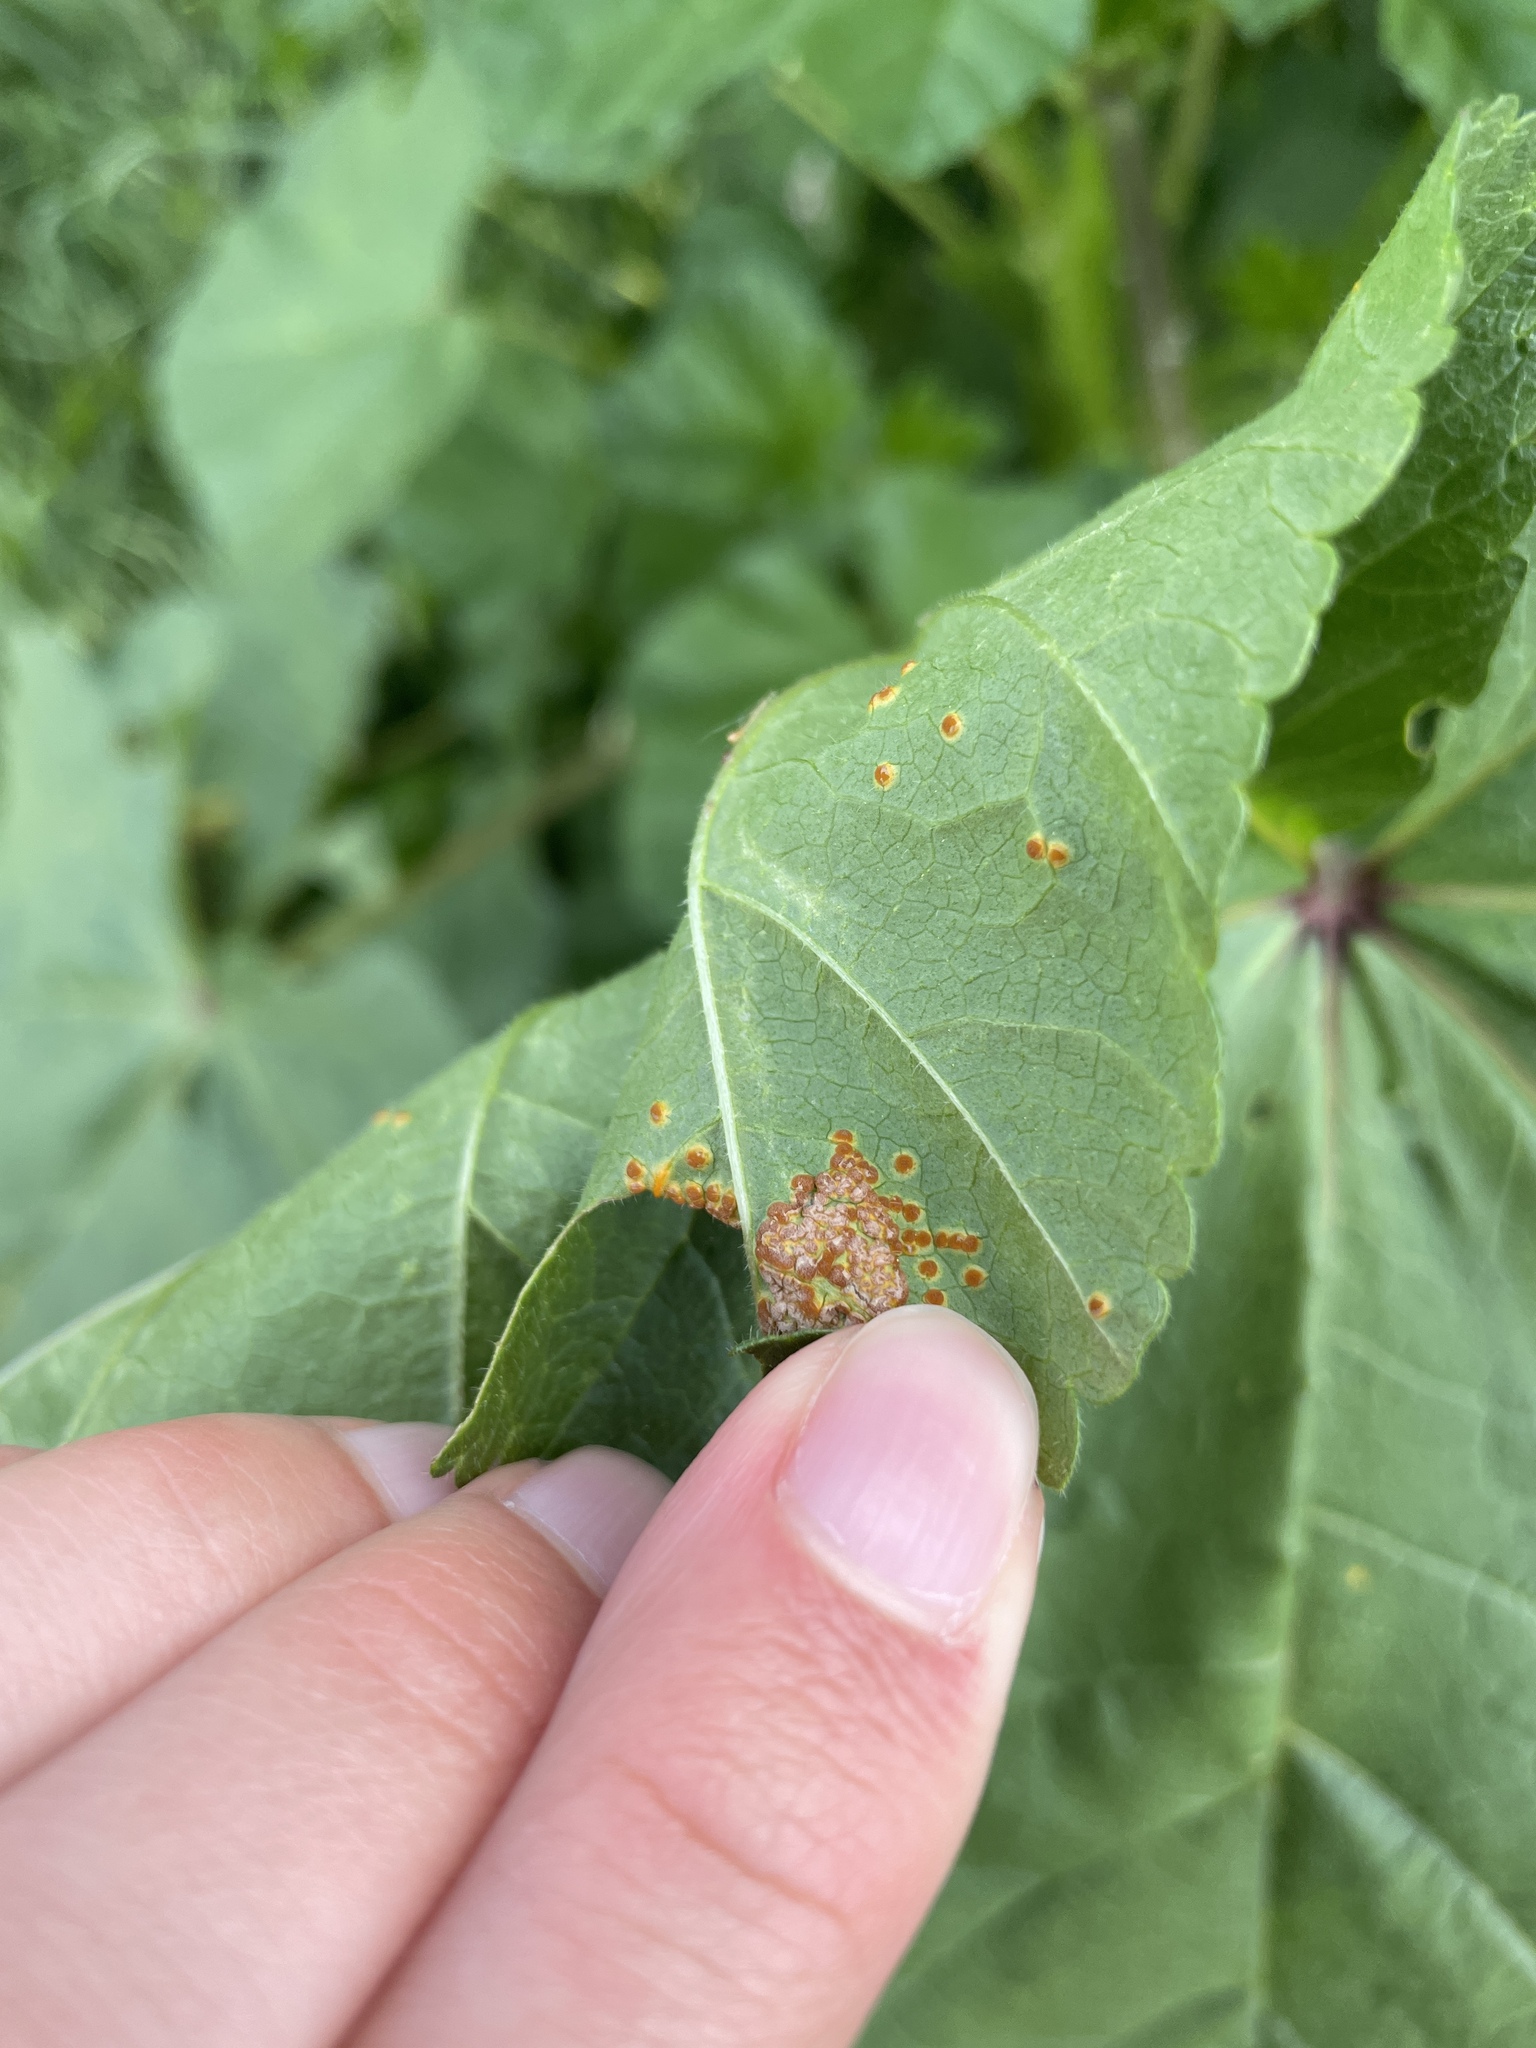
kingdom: Fungi
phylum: Basidiomycota
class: Pucciniomycetes
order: Pucciniales
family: Pucciniaceae
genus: Puccinia
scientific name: Puccinia malvacearum
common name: Hollyhock rust
